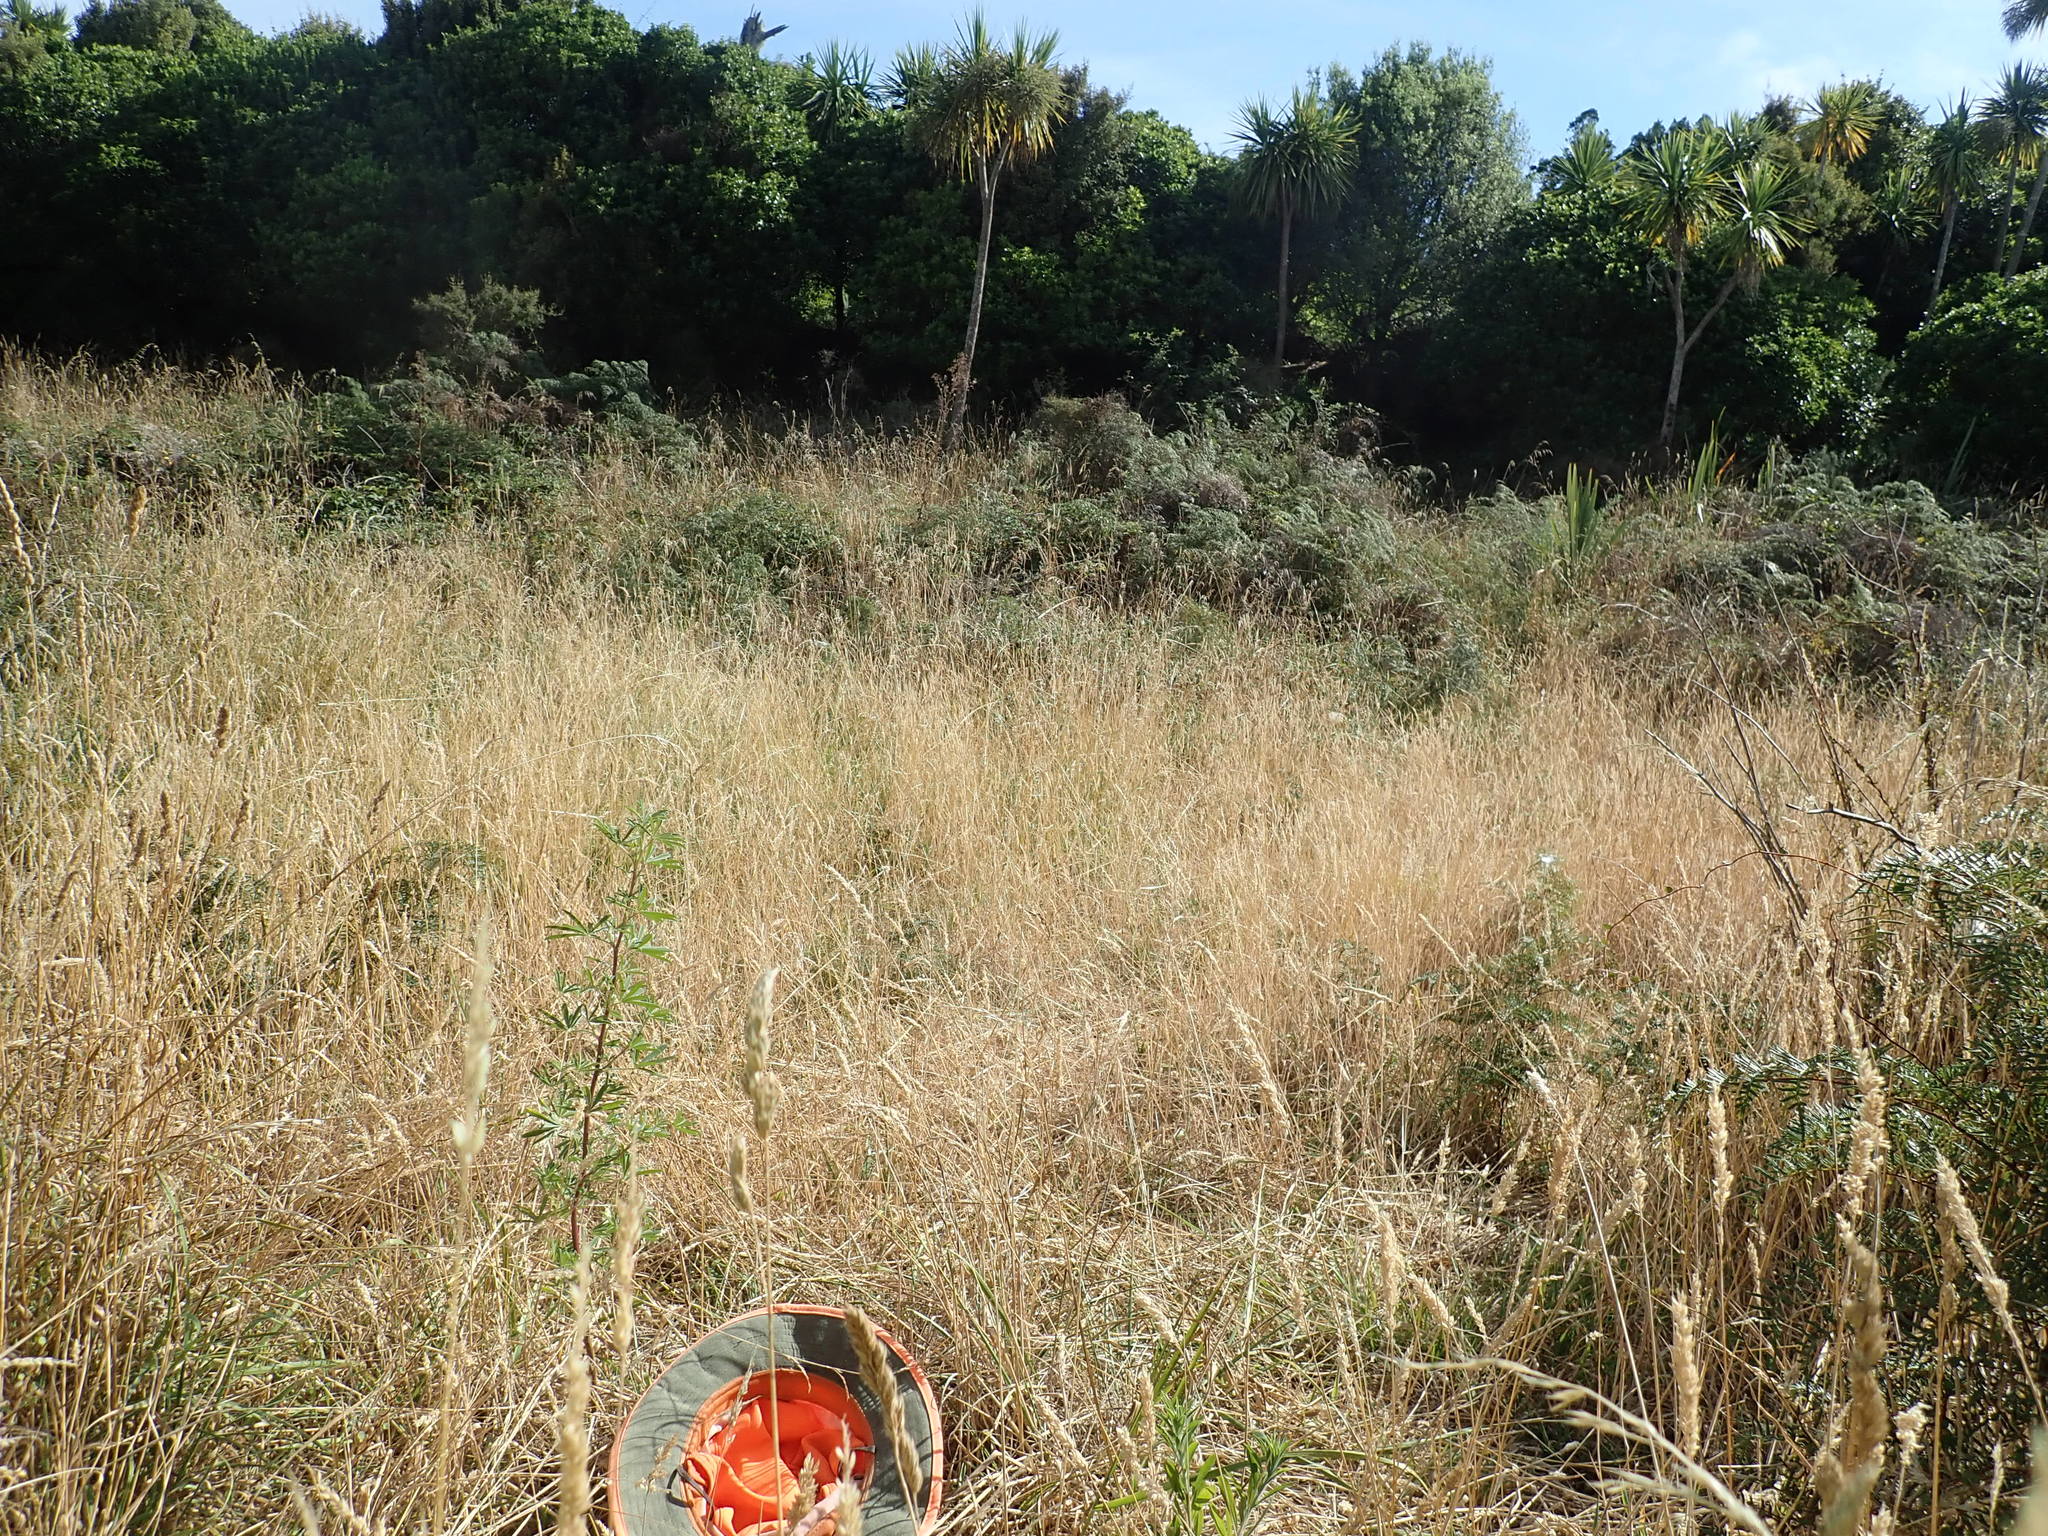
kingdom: Plantae
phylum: Tracheophyta
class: Magnoliopsida
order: Fabales
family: Fabaceae
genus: Lupinus
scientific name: Lupinus arboreus
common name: Yellow bush lupine
